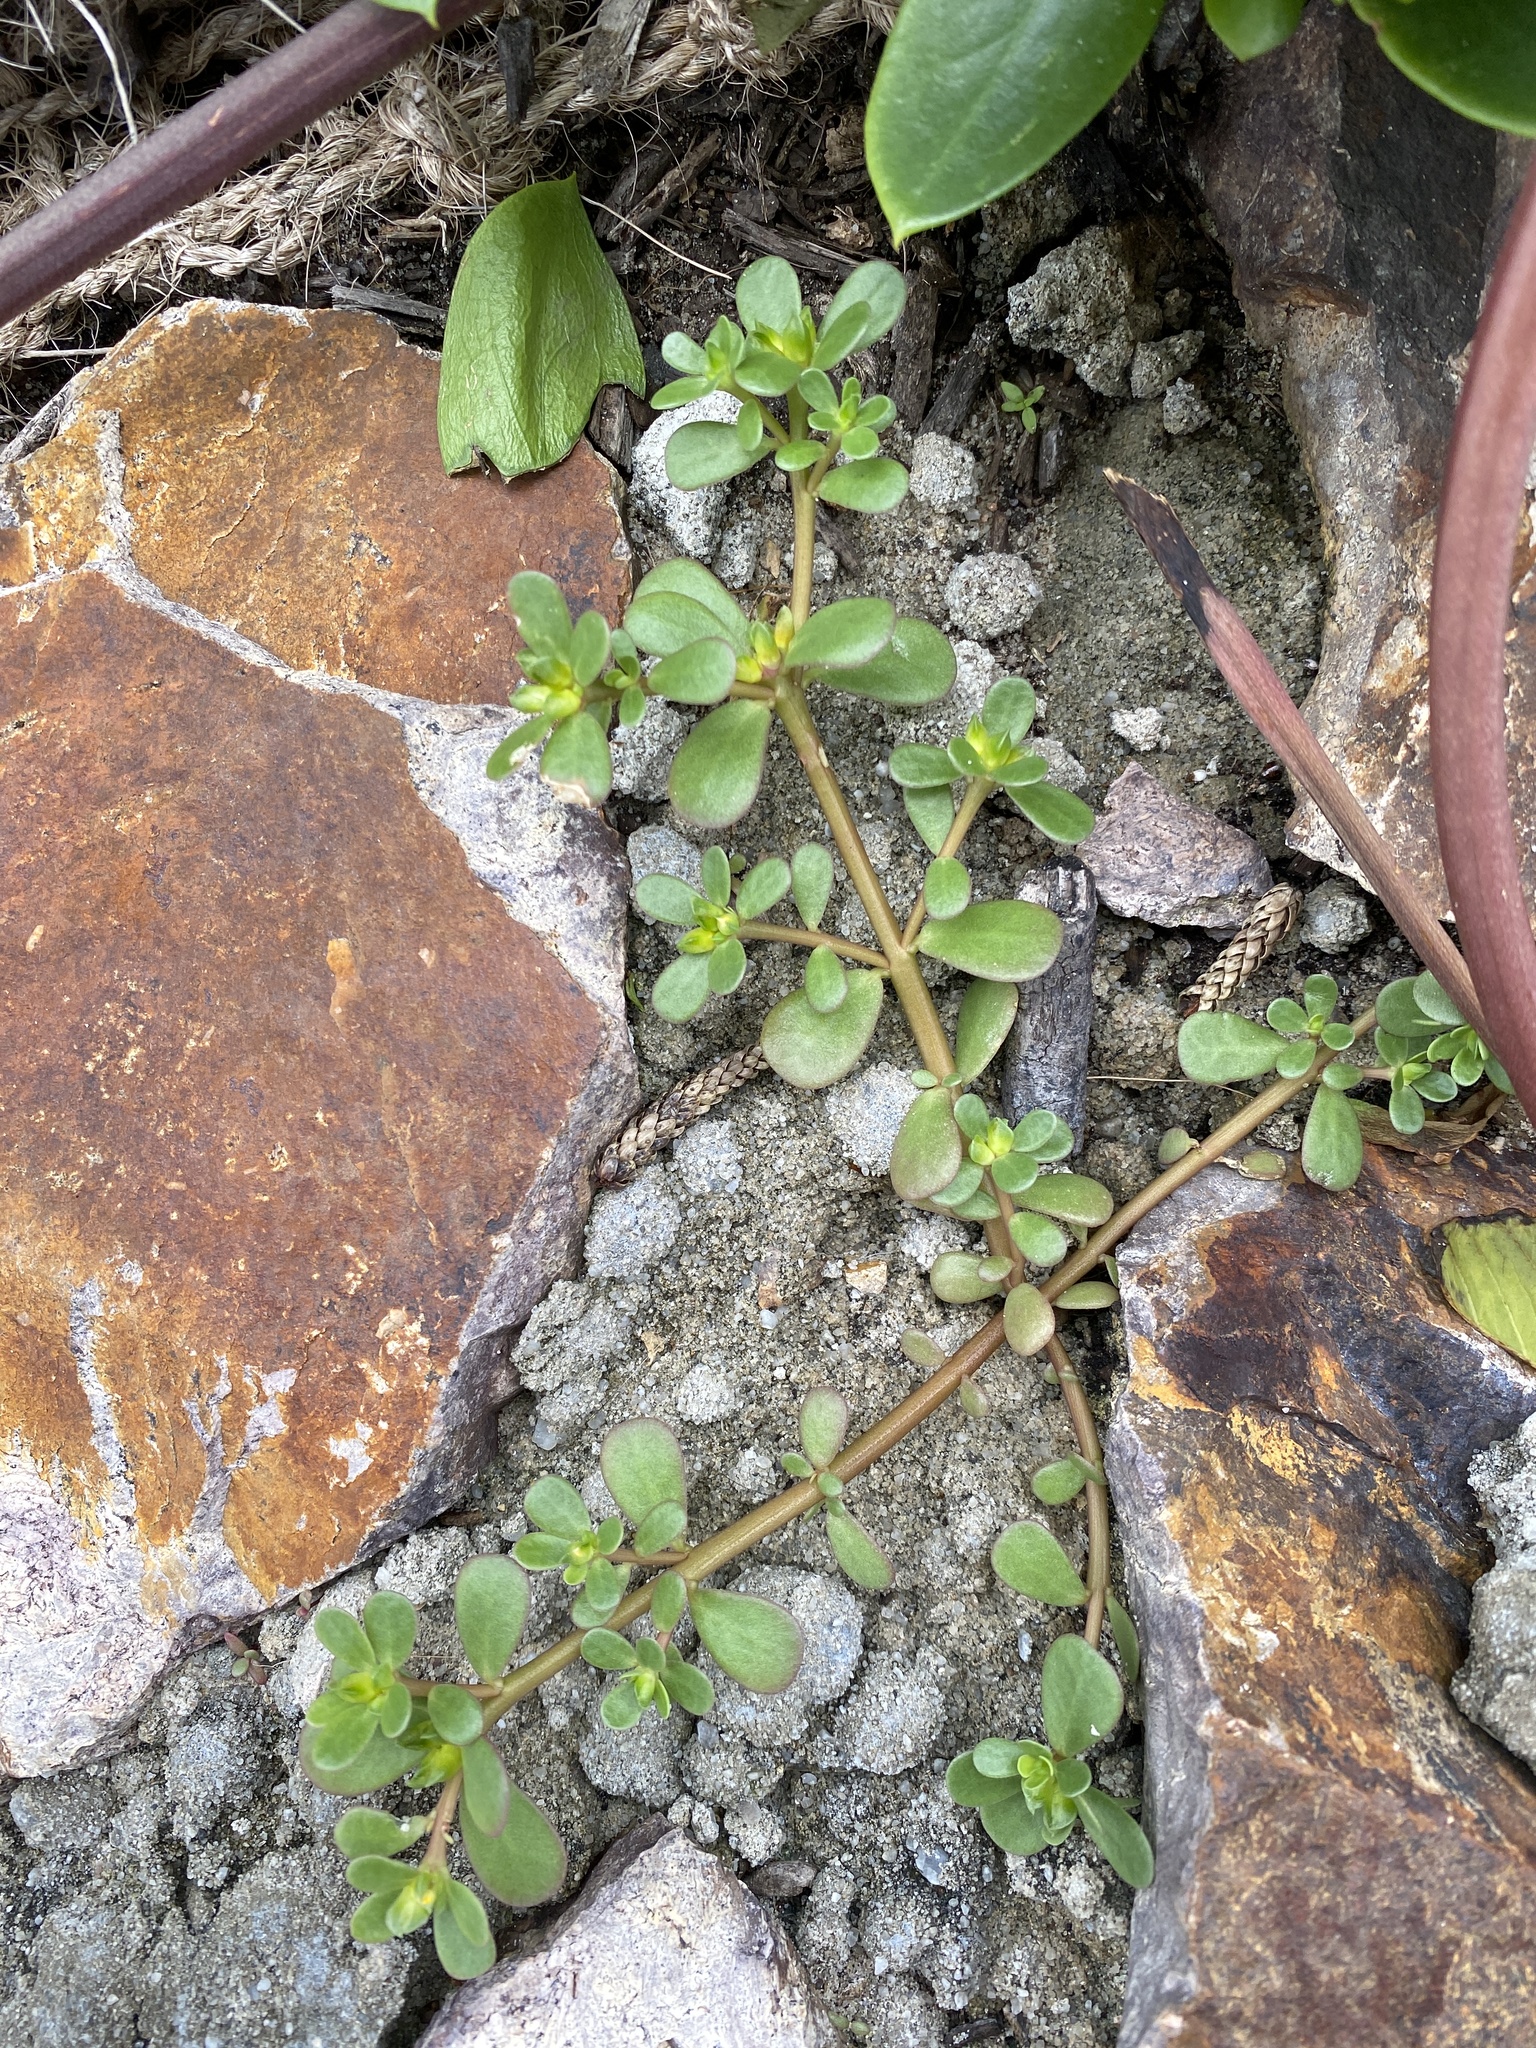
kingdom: Plantae
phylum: Tracheophyta
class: Magnoliopsida
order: Caryophyllales
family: Portulacaceae
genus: Portulaca
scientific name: Portulaca oleracea
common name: Common purslane
